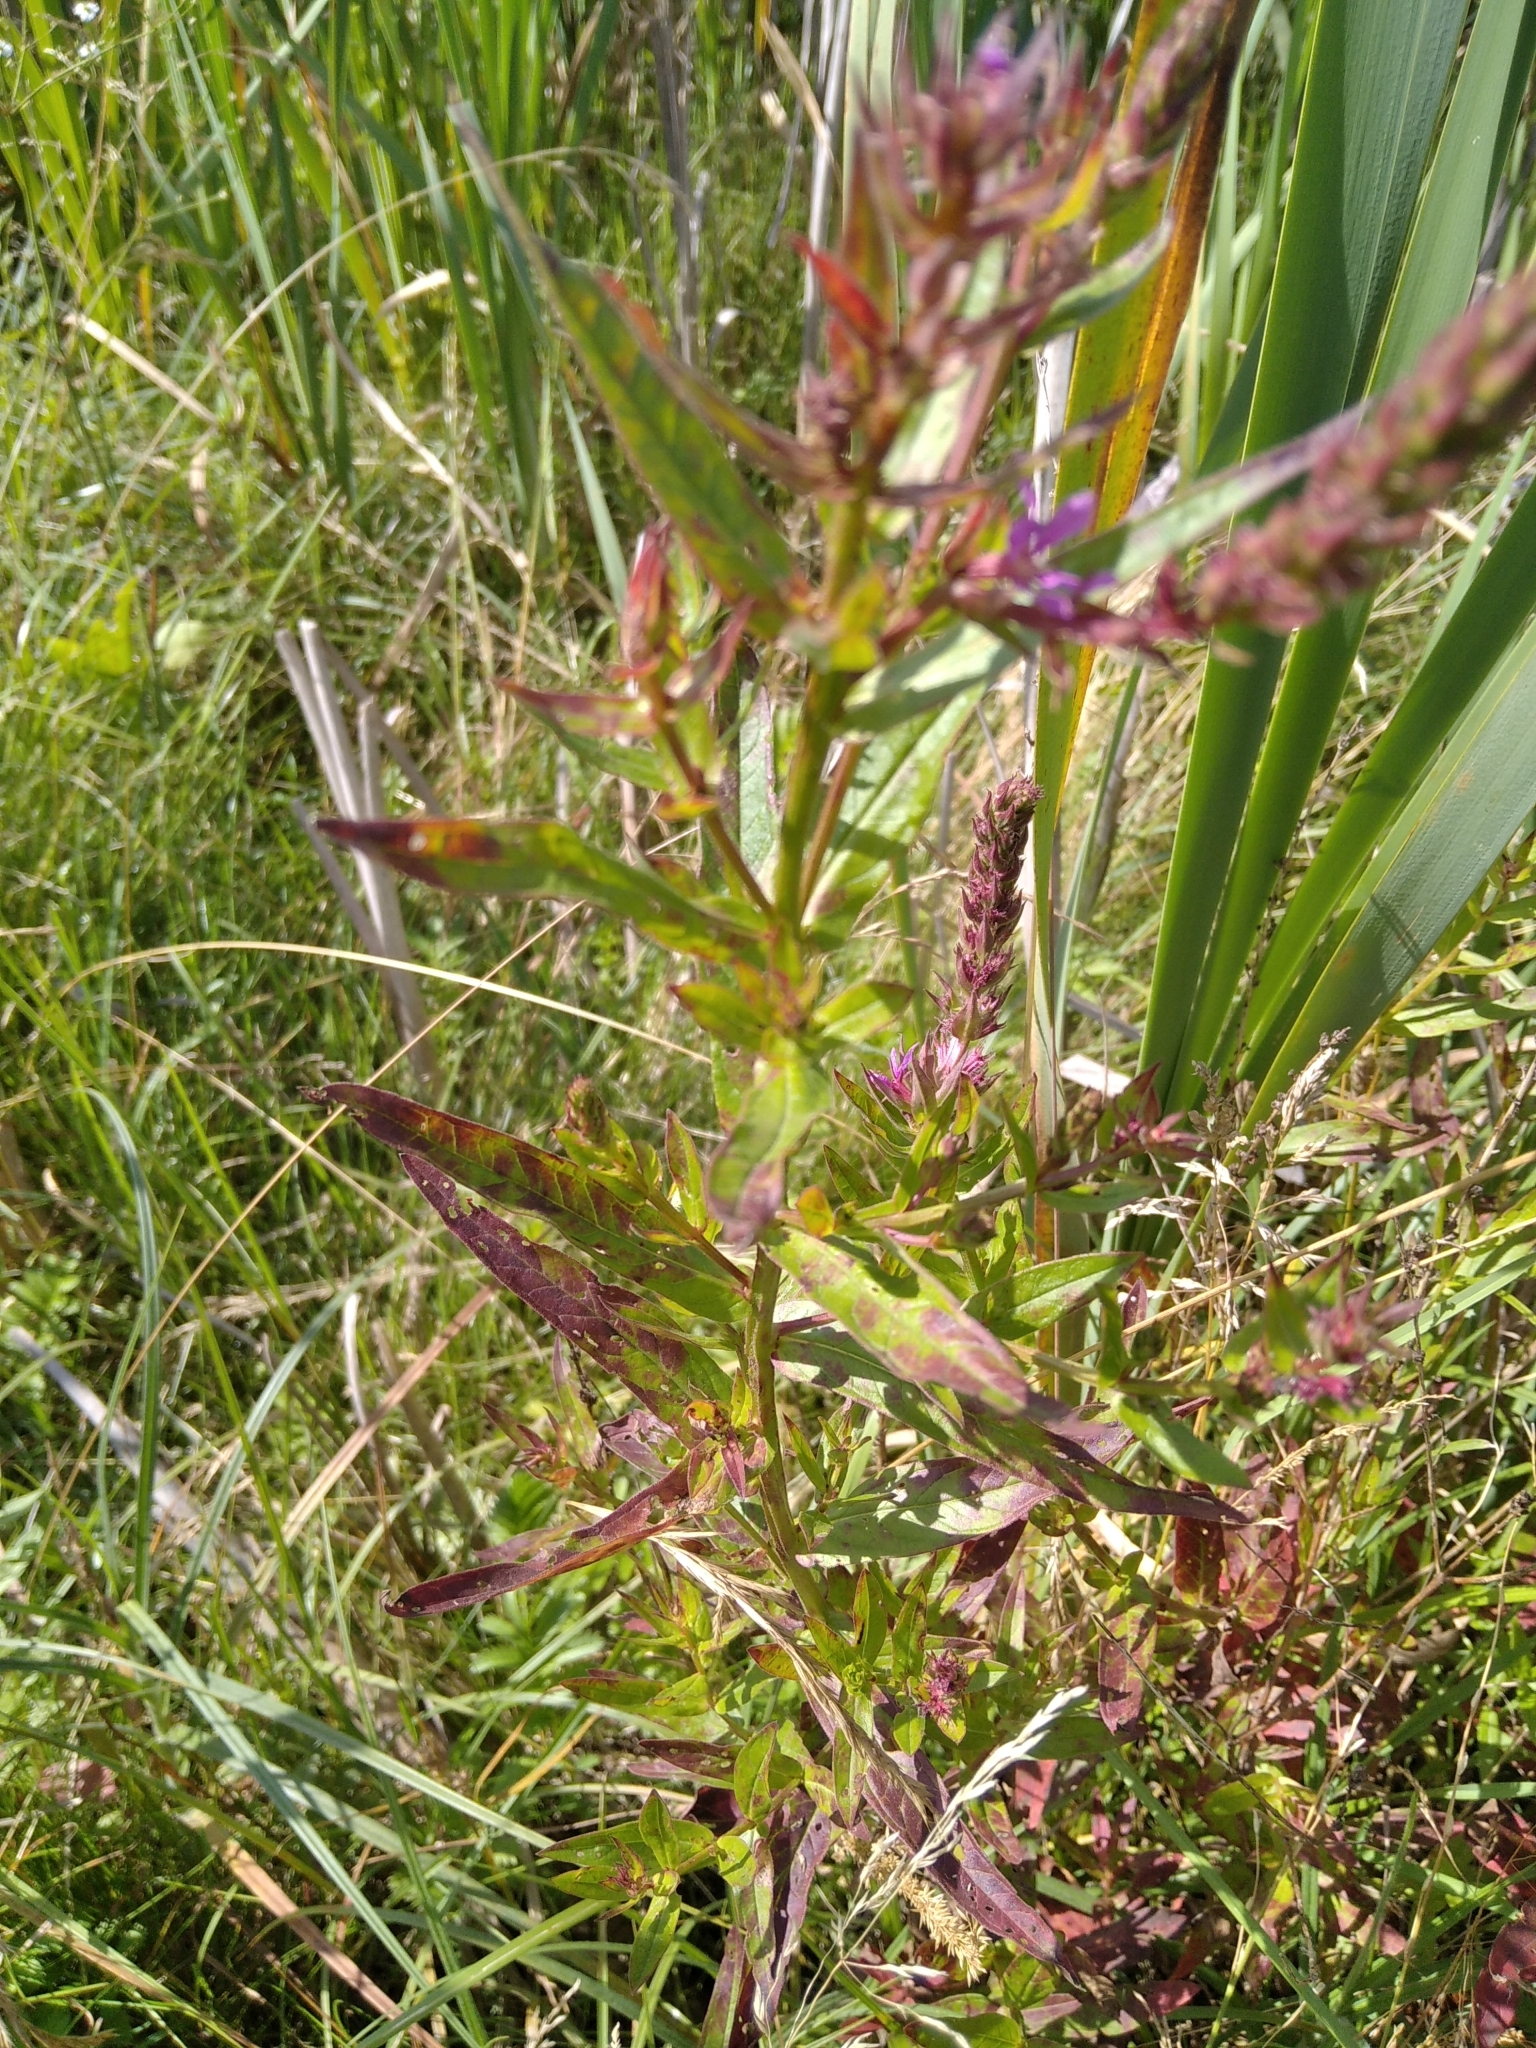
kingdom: Plantae
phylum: Tracheophyta
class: Magnoliopsida
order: Myrtales
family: Lythraceae
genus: Lythrum
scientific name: Lythrum salicaria
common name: Purple loosestrife
